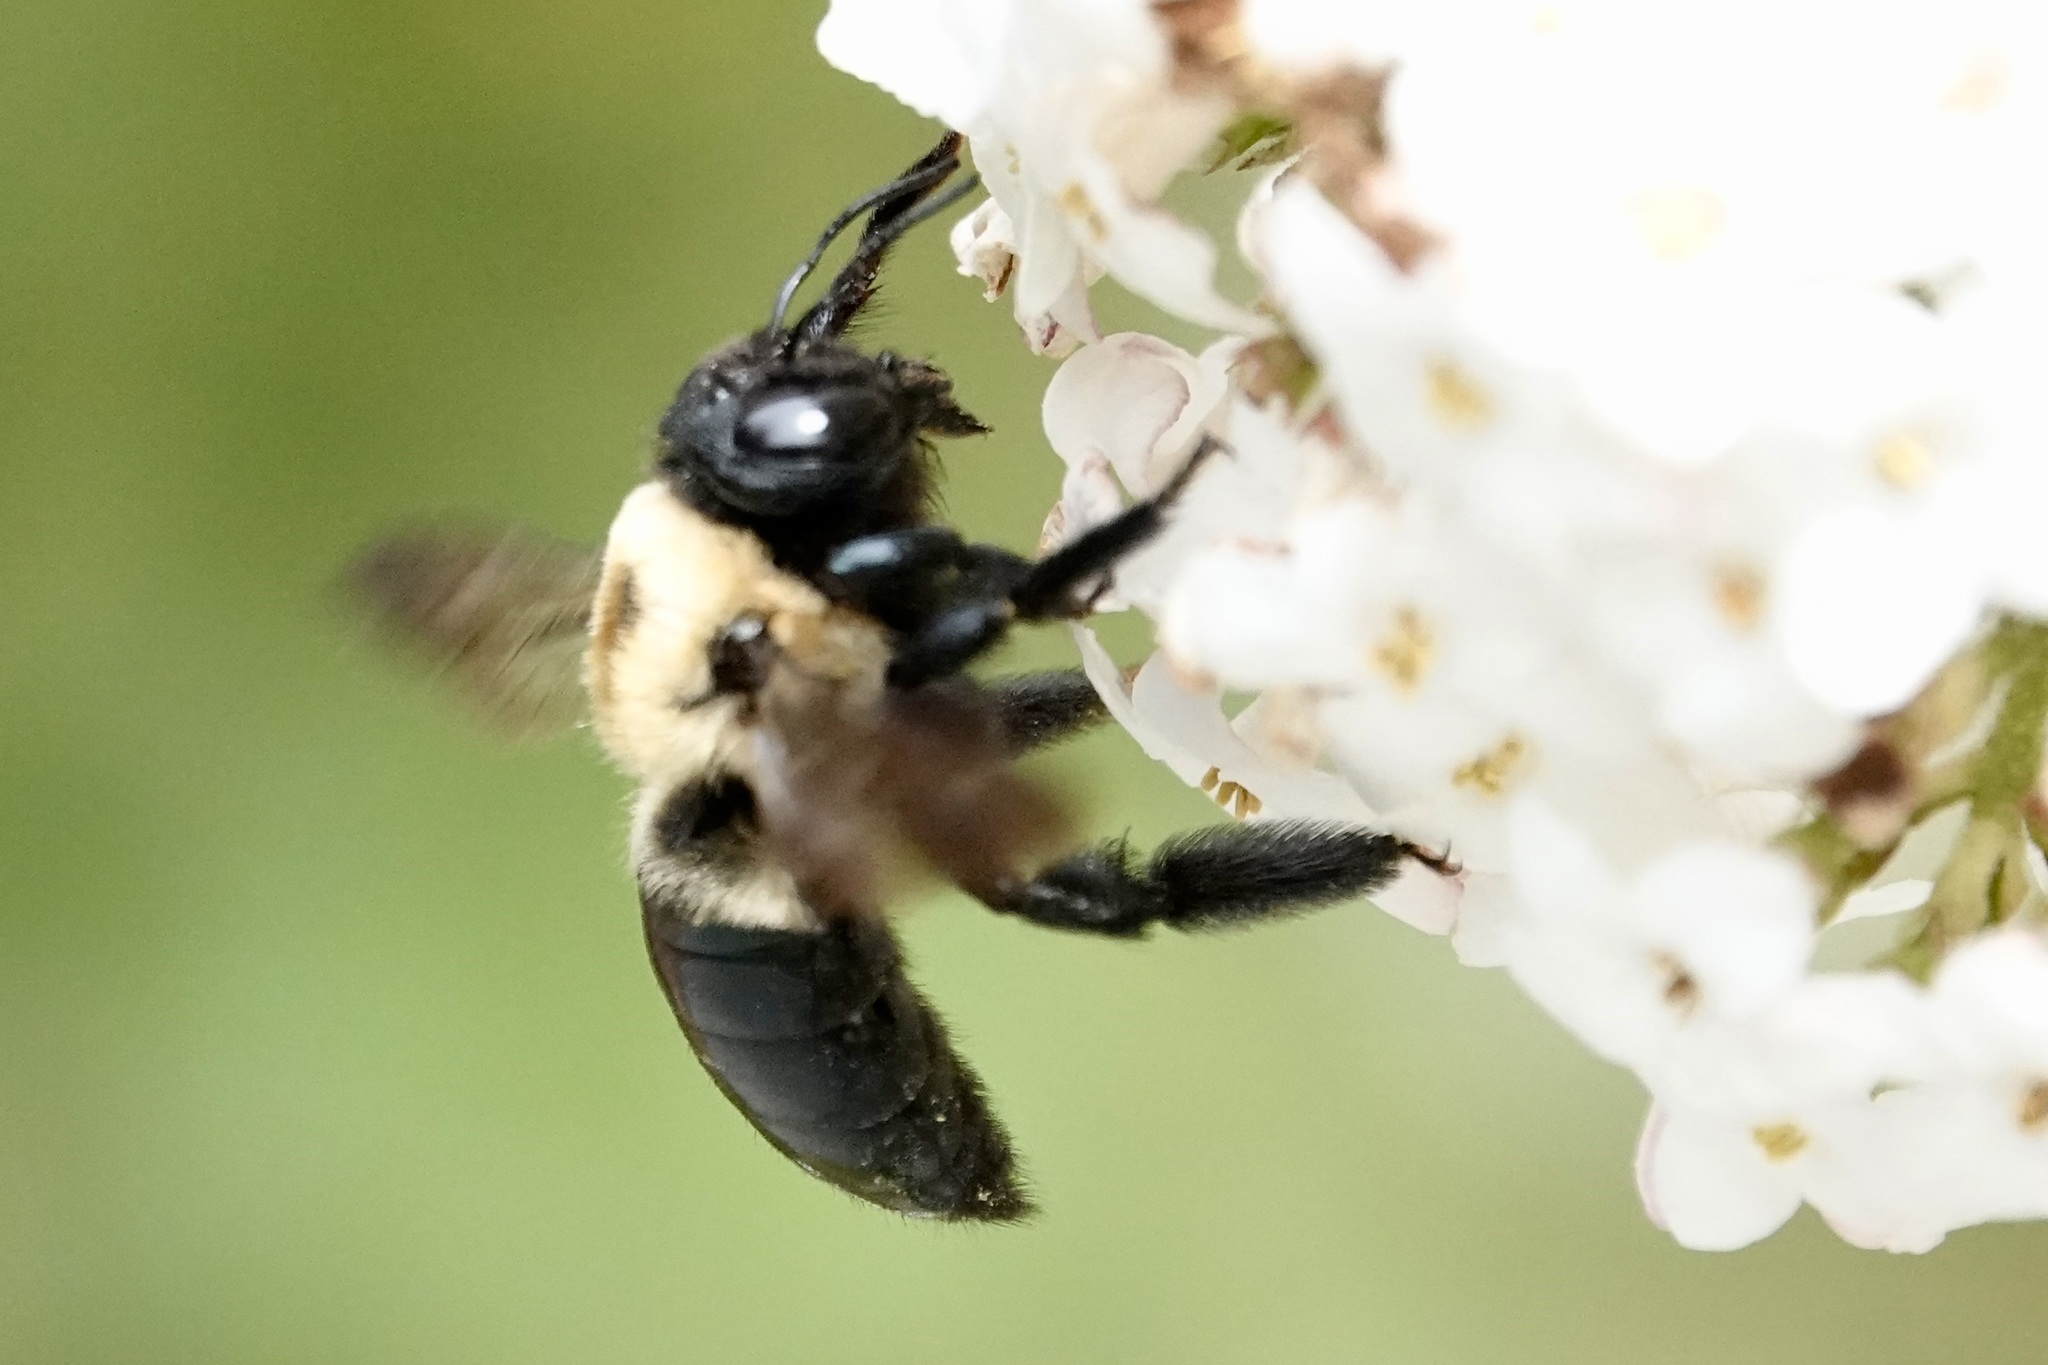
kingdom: Animalia
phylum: Arthropoda
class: Insecta
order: Hymenoptera
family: Apidae
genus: Xylocopa
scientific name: Xylocopa virginica
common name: Carpenter bee
